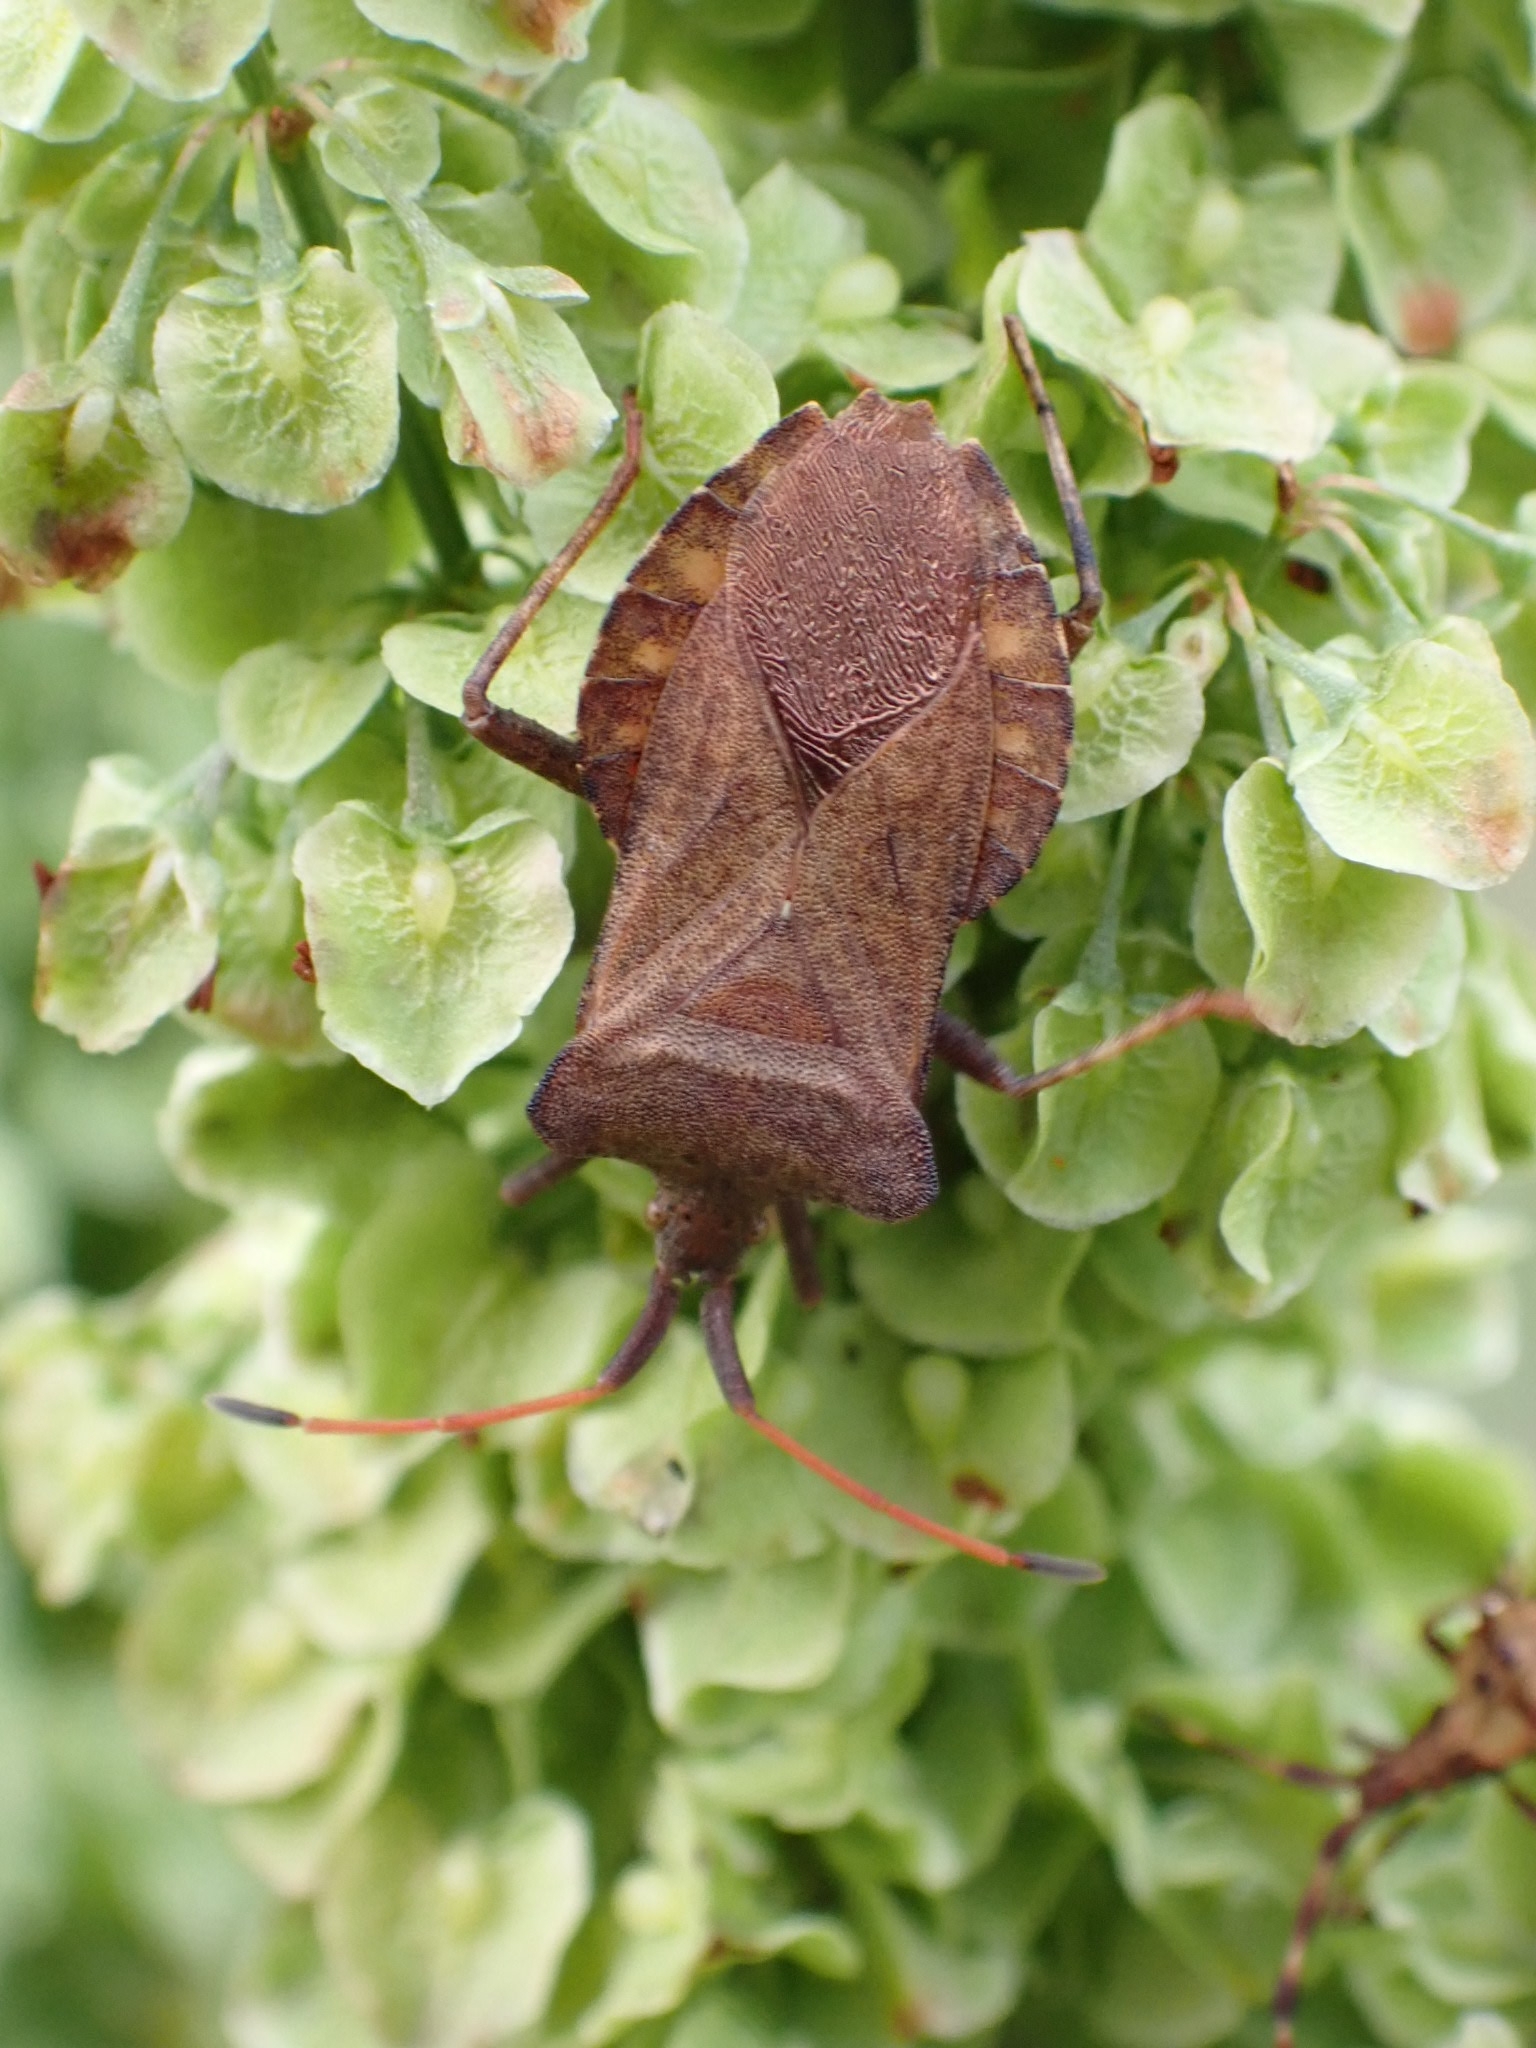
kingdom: Animalia
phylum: Arthropoda
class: Insecta
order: Hemiptera
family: Coreidae
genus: Coreus
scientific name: Coreus marginatus
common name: Dock bug
